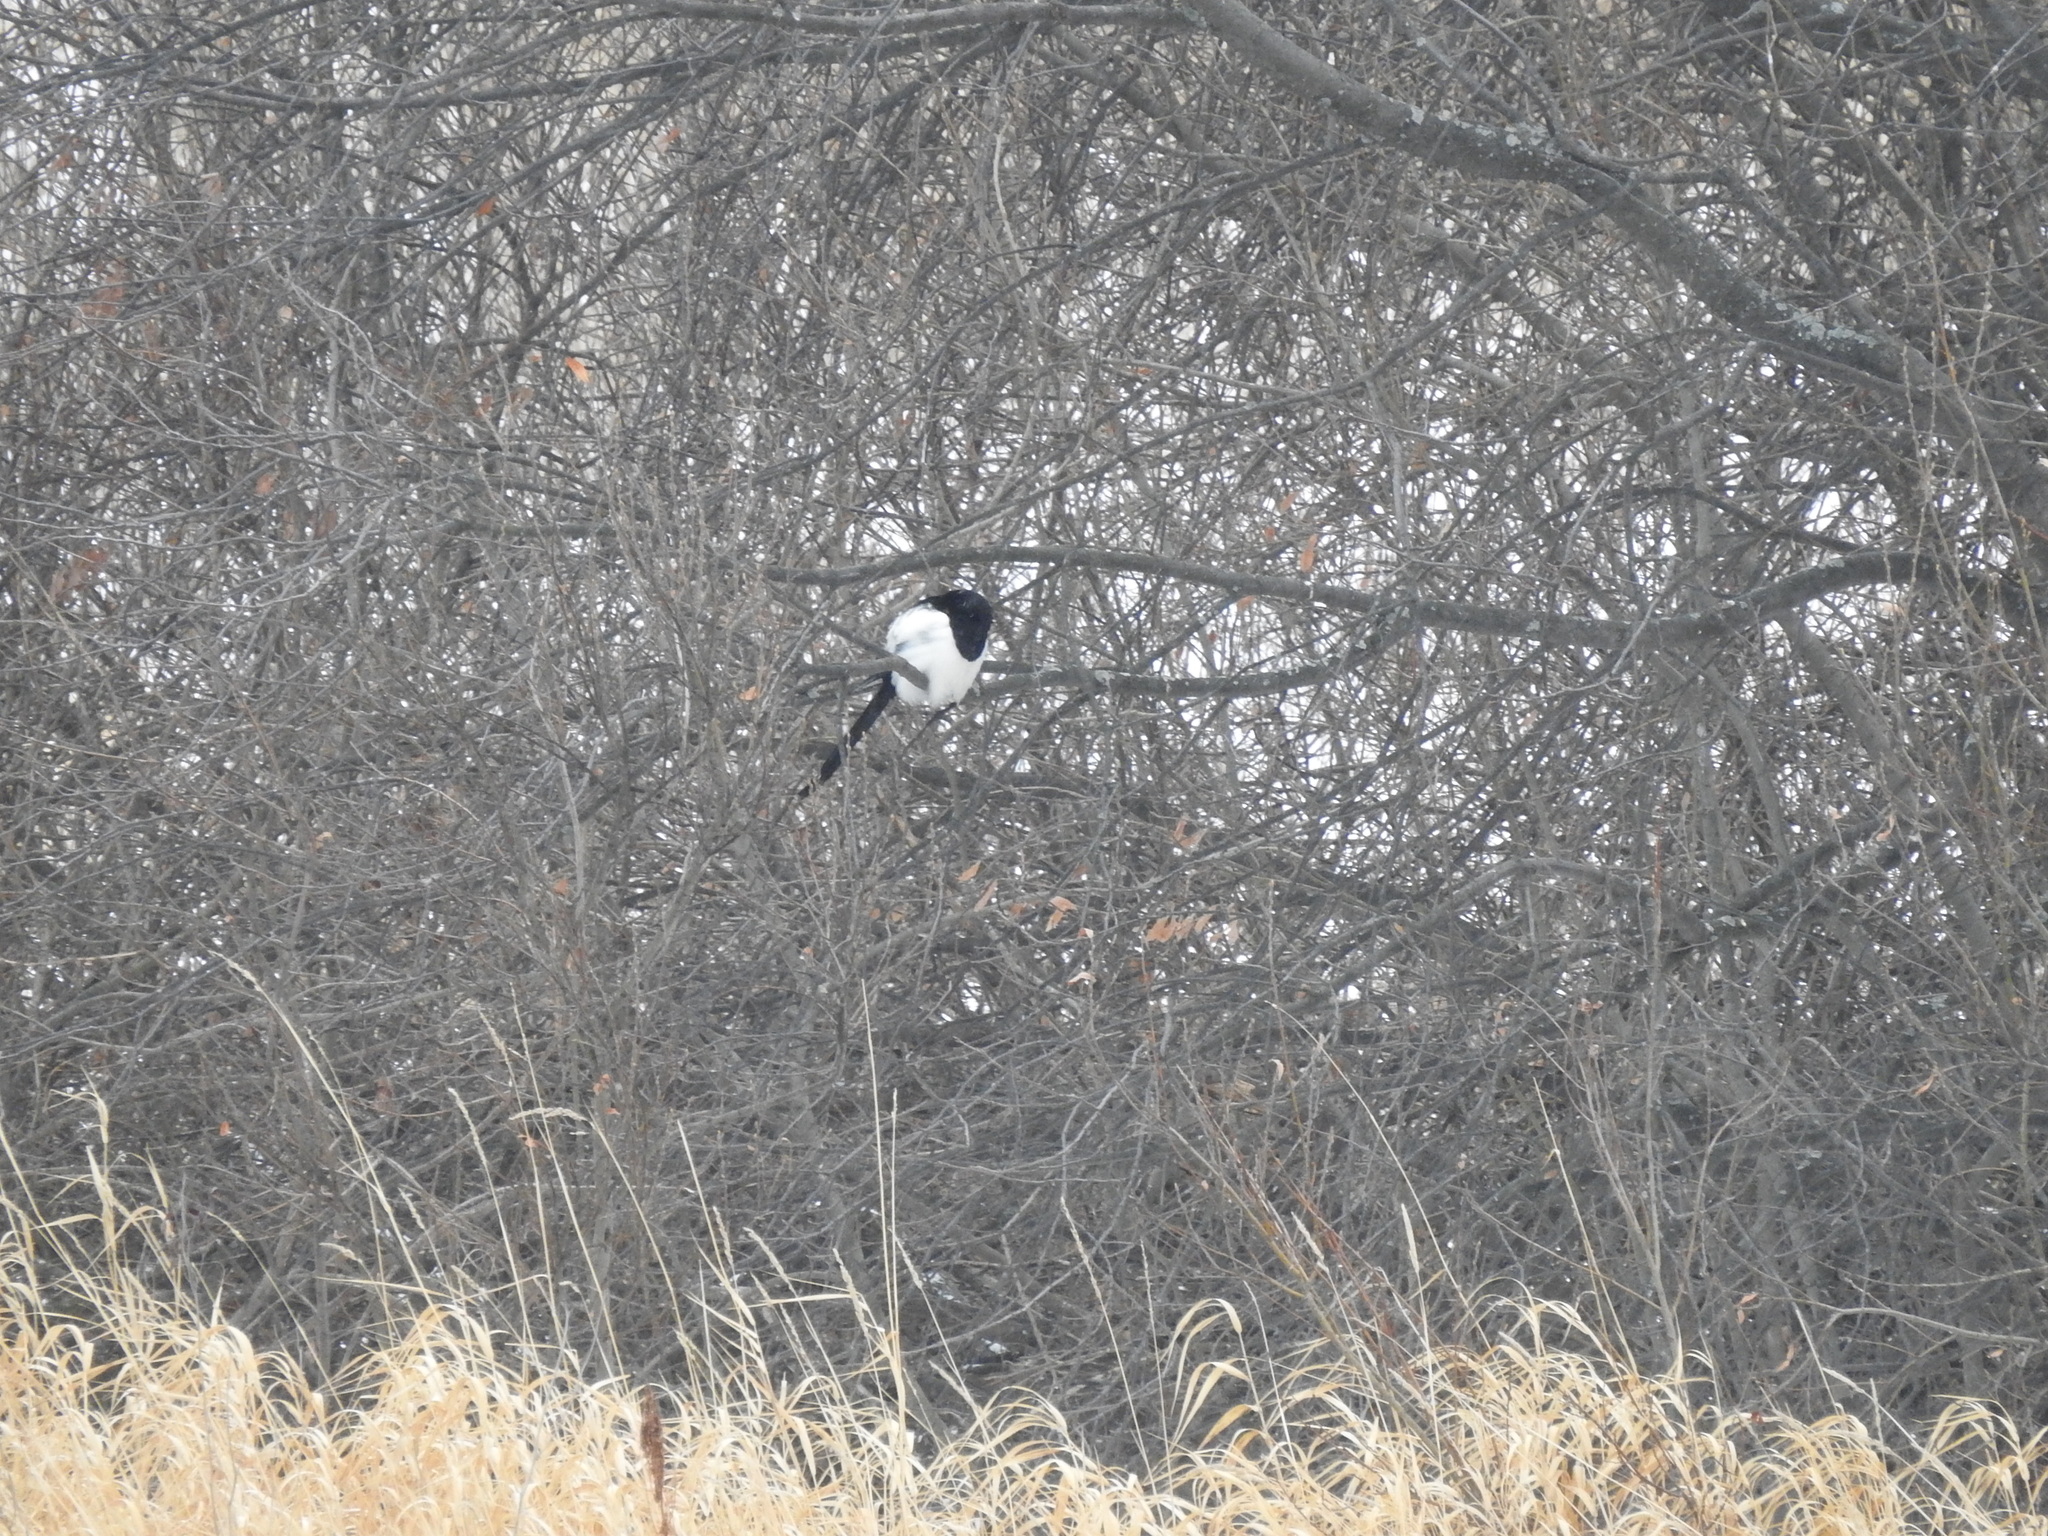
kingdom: Animalia
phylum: Chordata
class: Aves
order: Passeriformes
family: Corvidae
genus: Pica
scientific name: Pica pica
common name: Eurasian magpie
